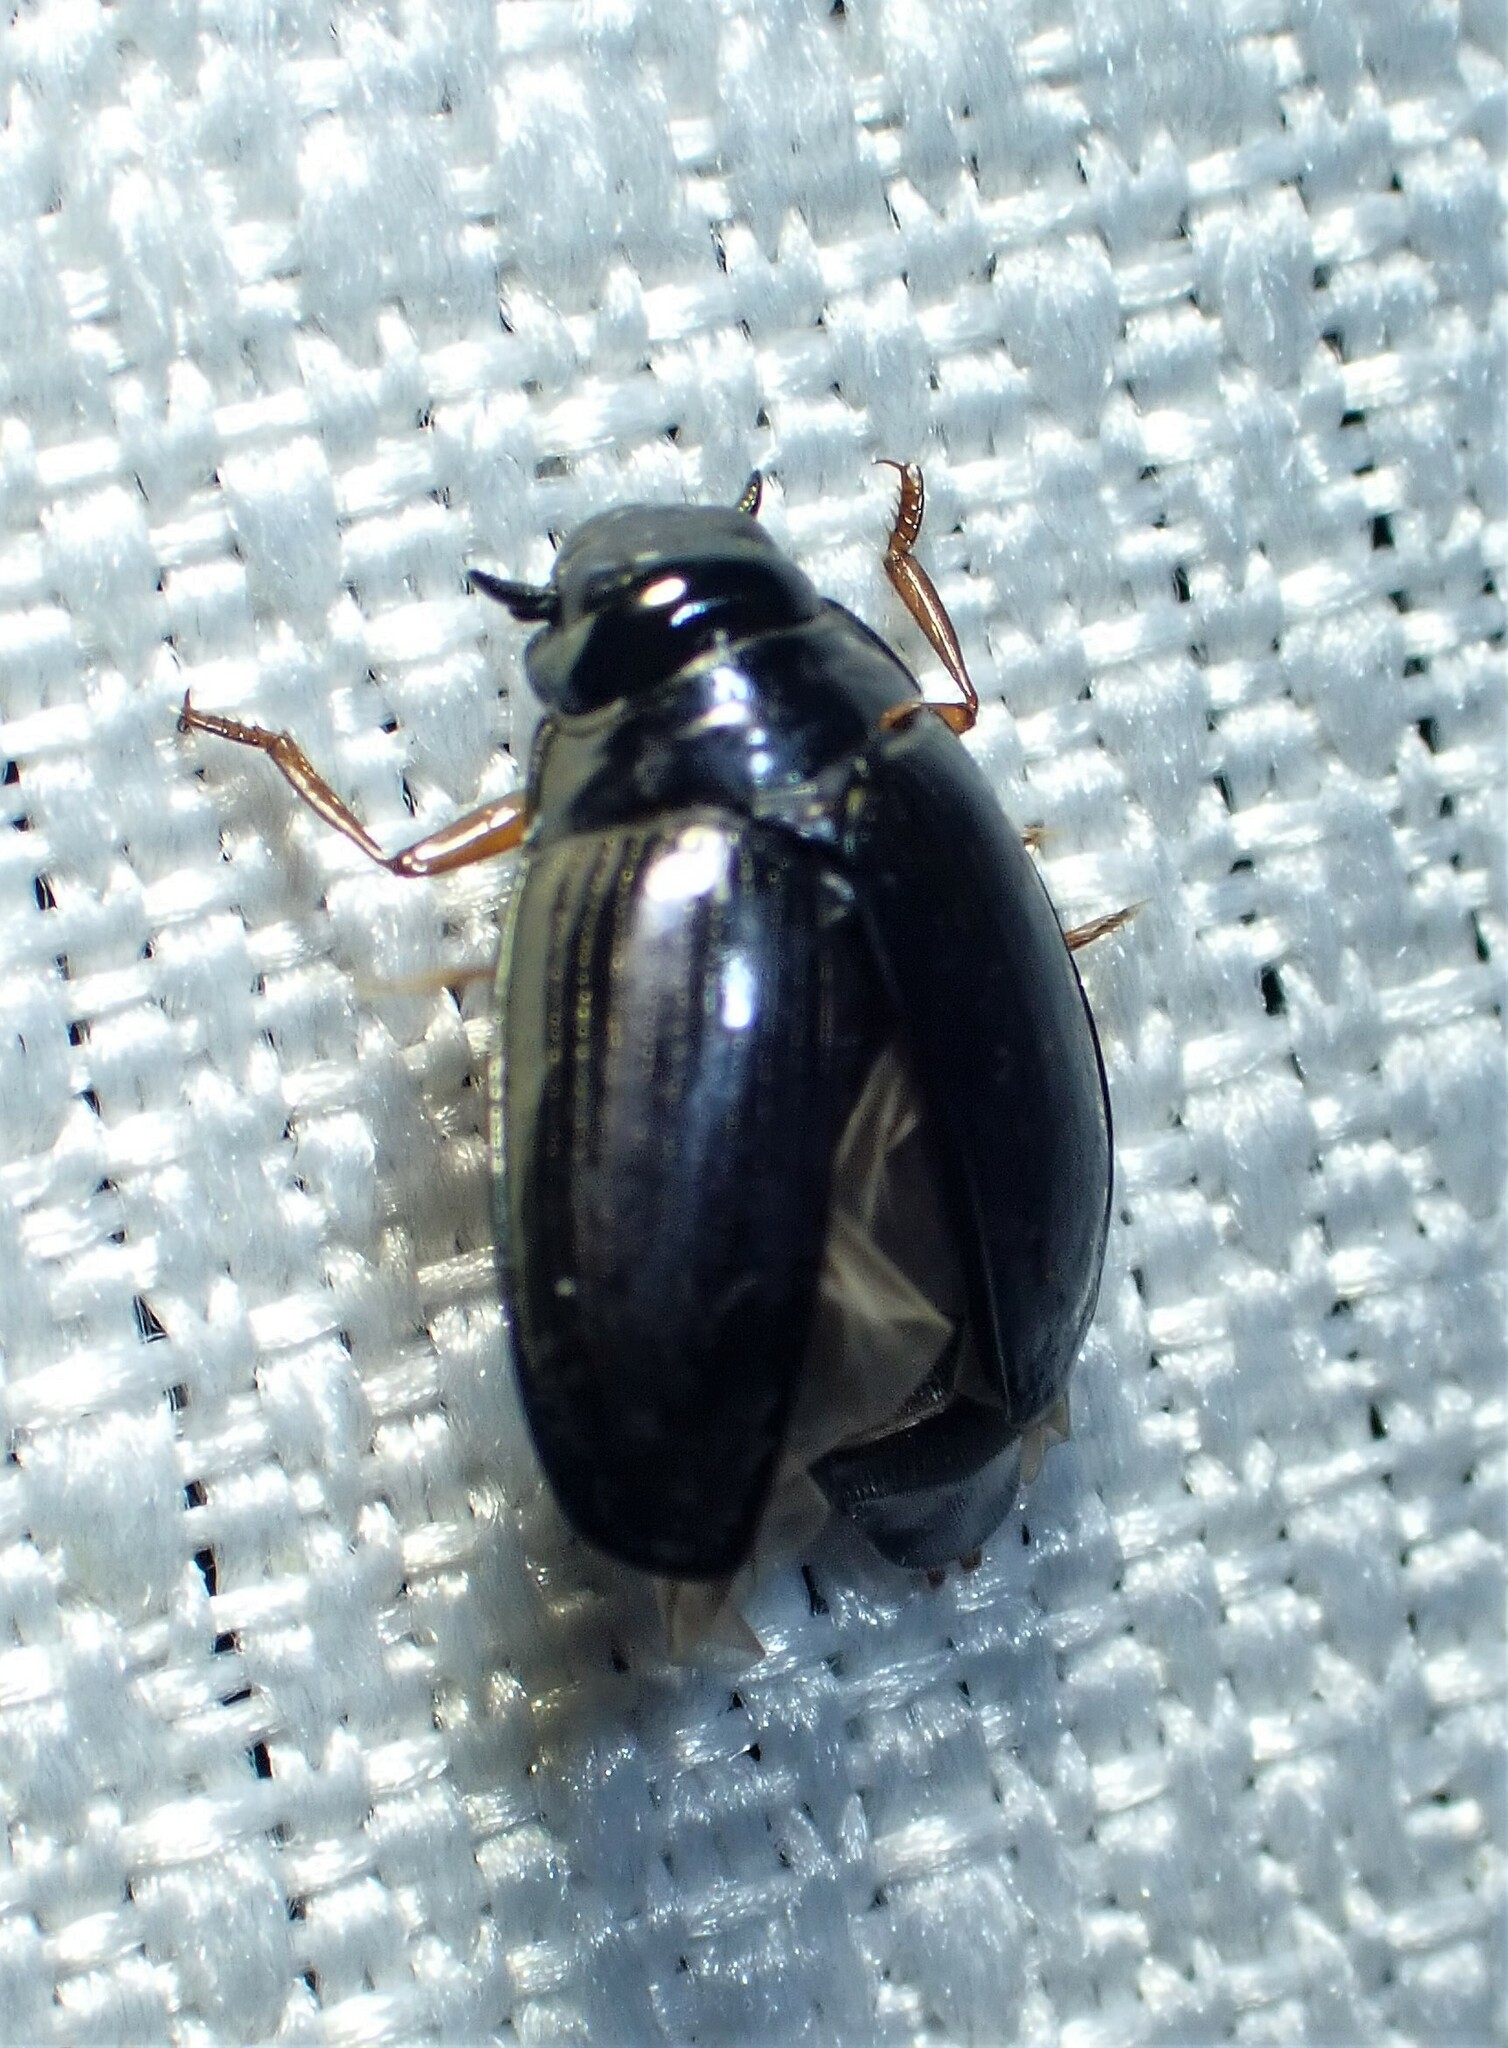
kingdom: Animalia
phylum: Arthropoda
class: Insecta
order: Coleoptera
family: Gyrinidae
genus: Gyrinus
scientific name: Gyrinus
